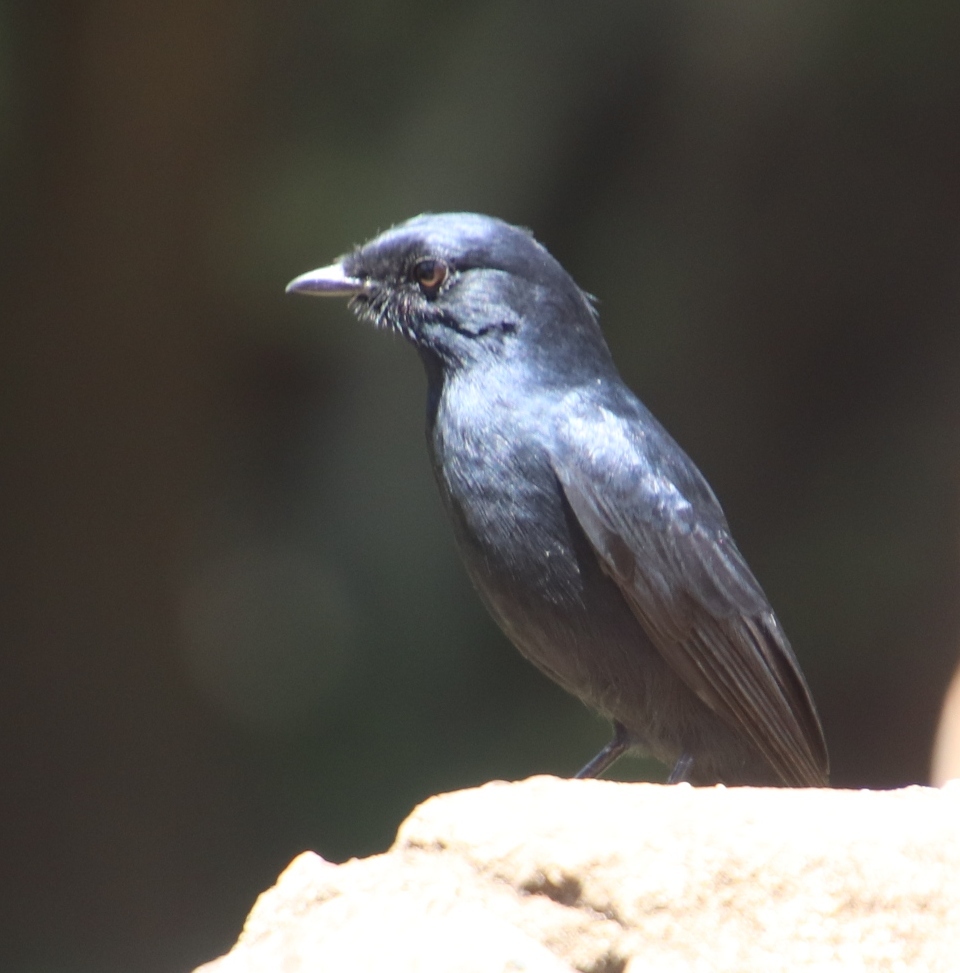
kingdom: Animalia
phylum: Chordata
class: Aves
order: Passeriformes
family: Dicruridae
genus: Dicrurus
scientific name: Dicrurus adsimilis
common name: Fork-tailed drongo
